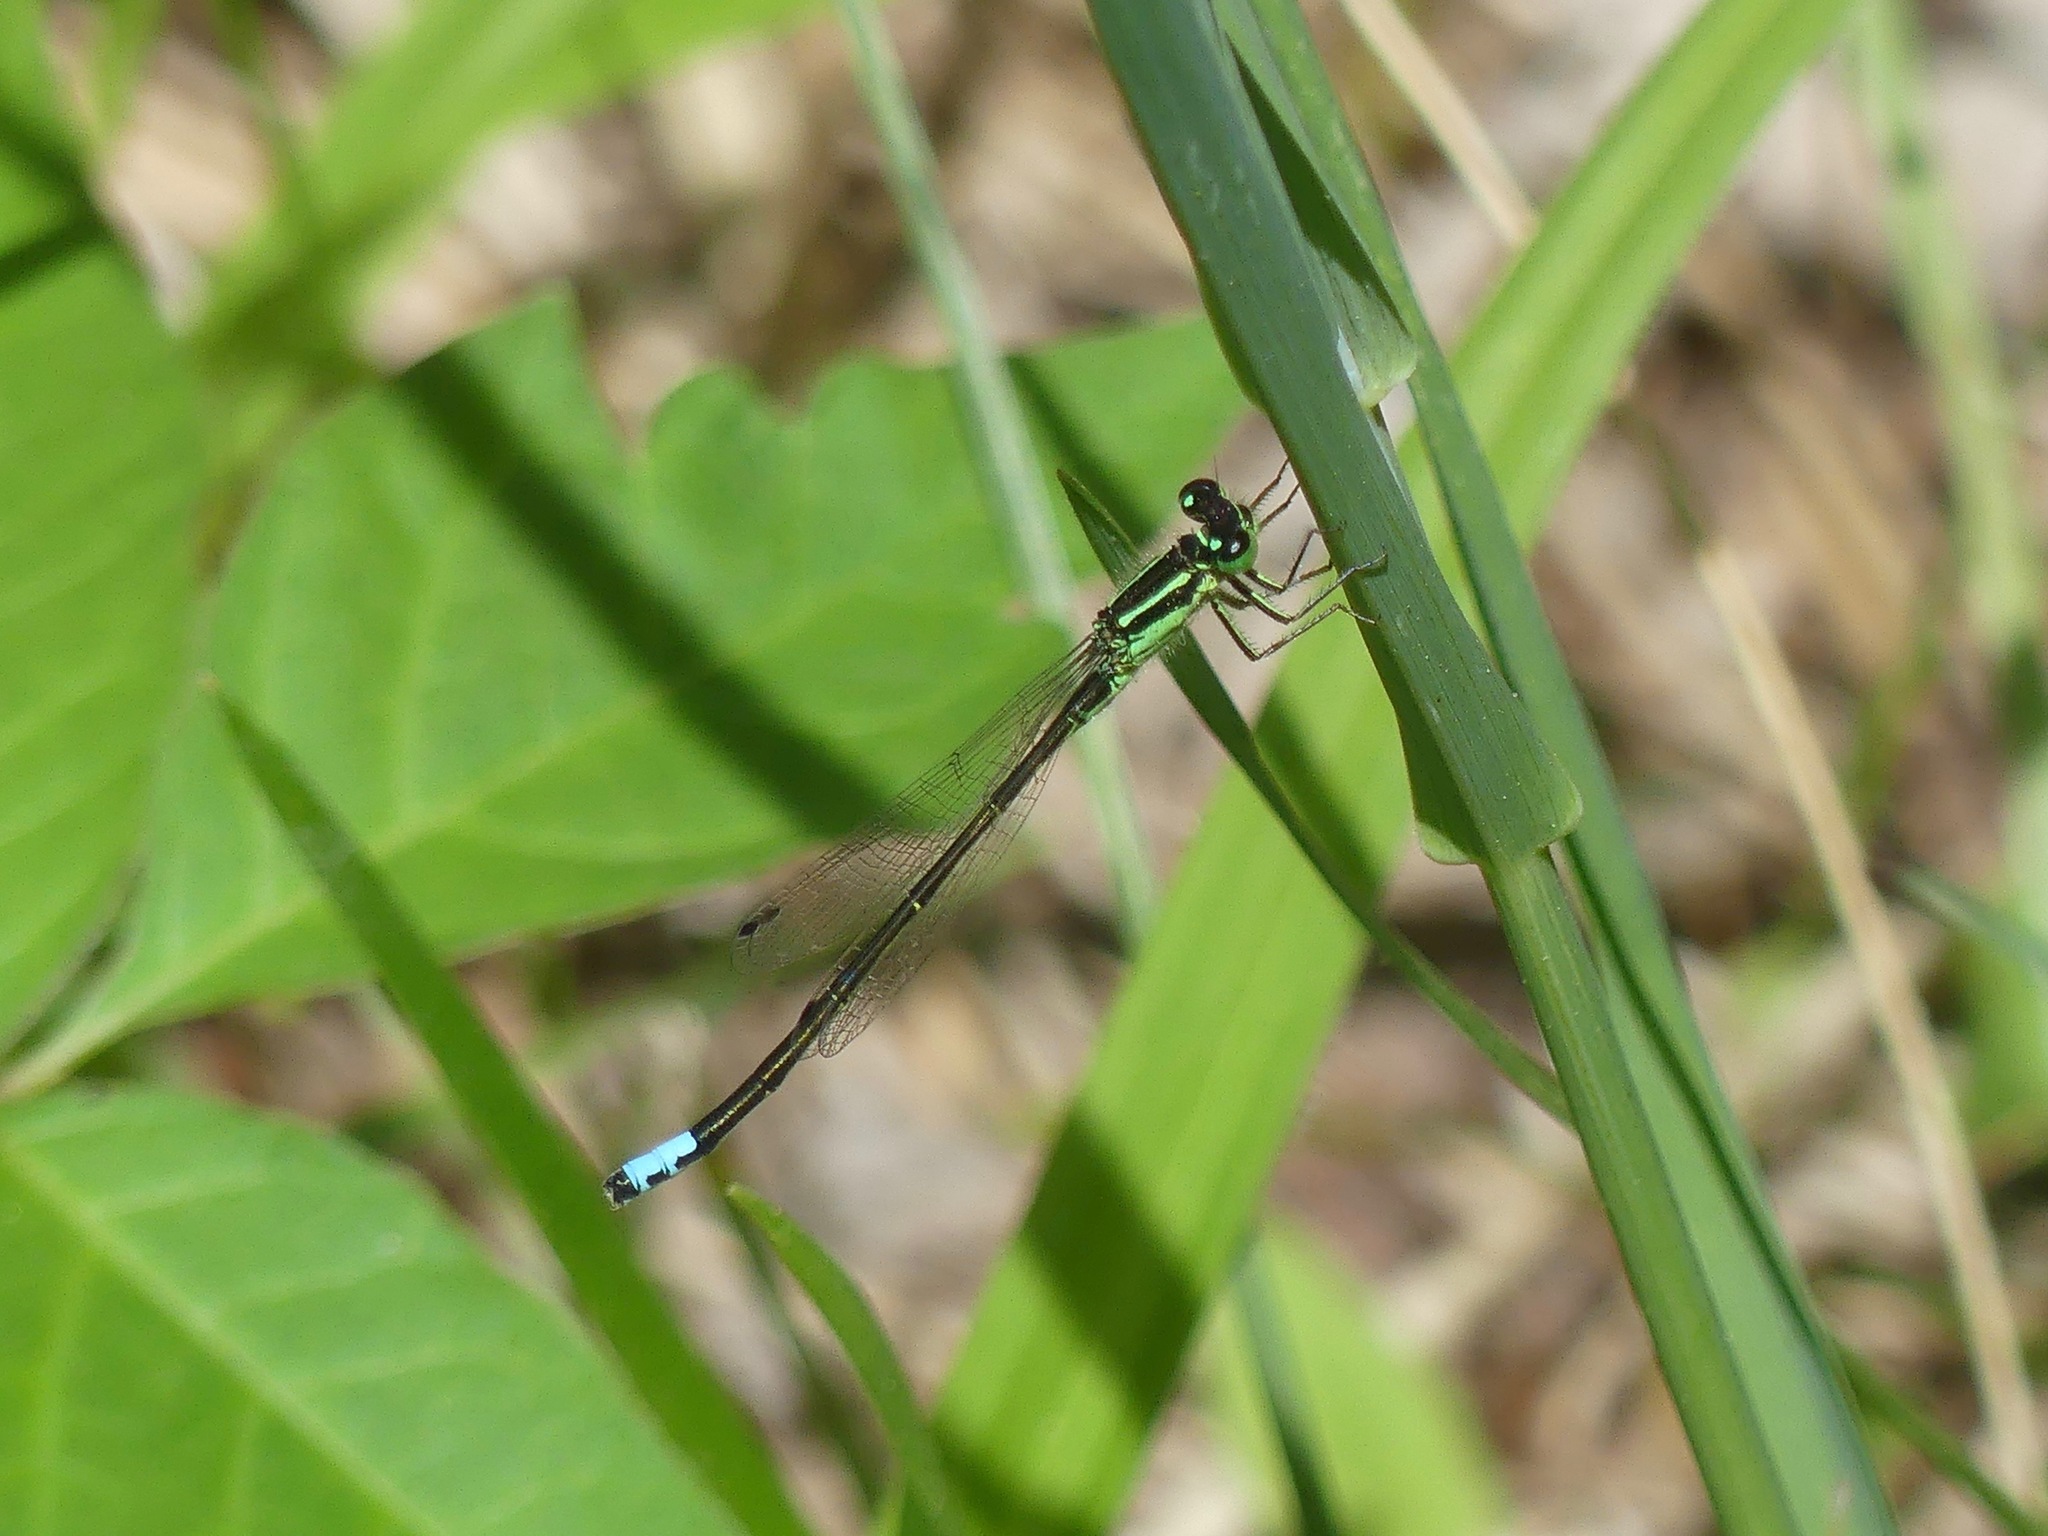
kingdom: Animalia
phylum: Arthropoda
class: Insecta
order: Odonata
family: Coenagrionidae
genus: Ischnura
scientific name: Ischnura verticalis
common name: Eastern forktail
